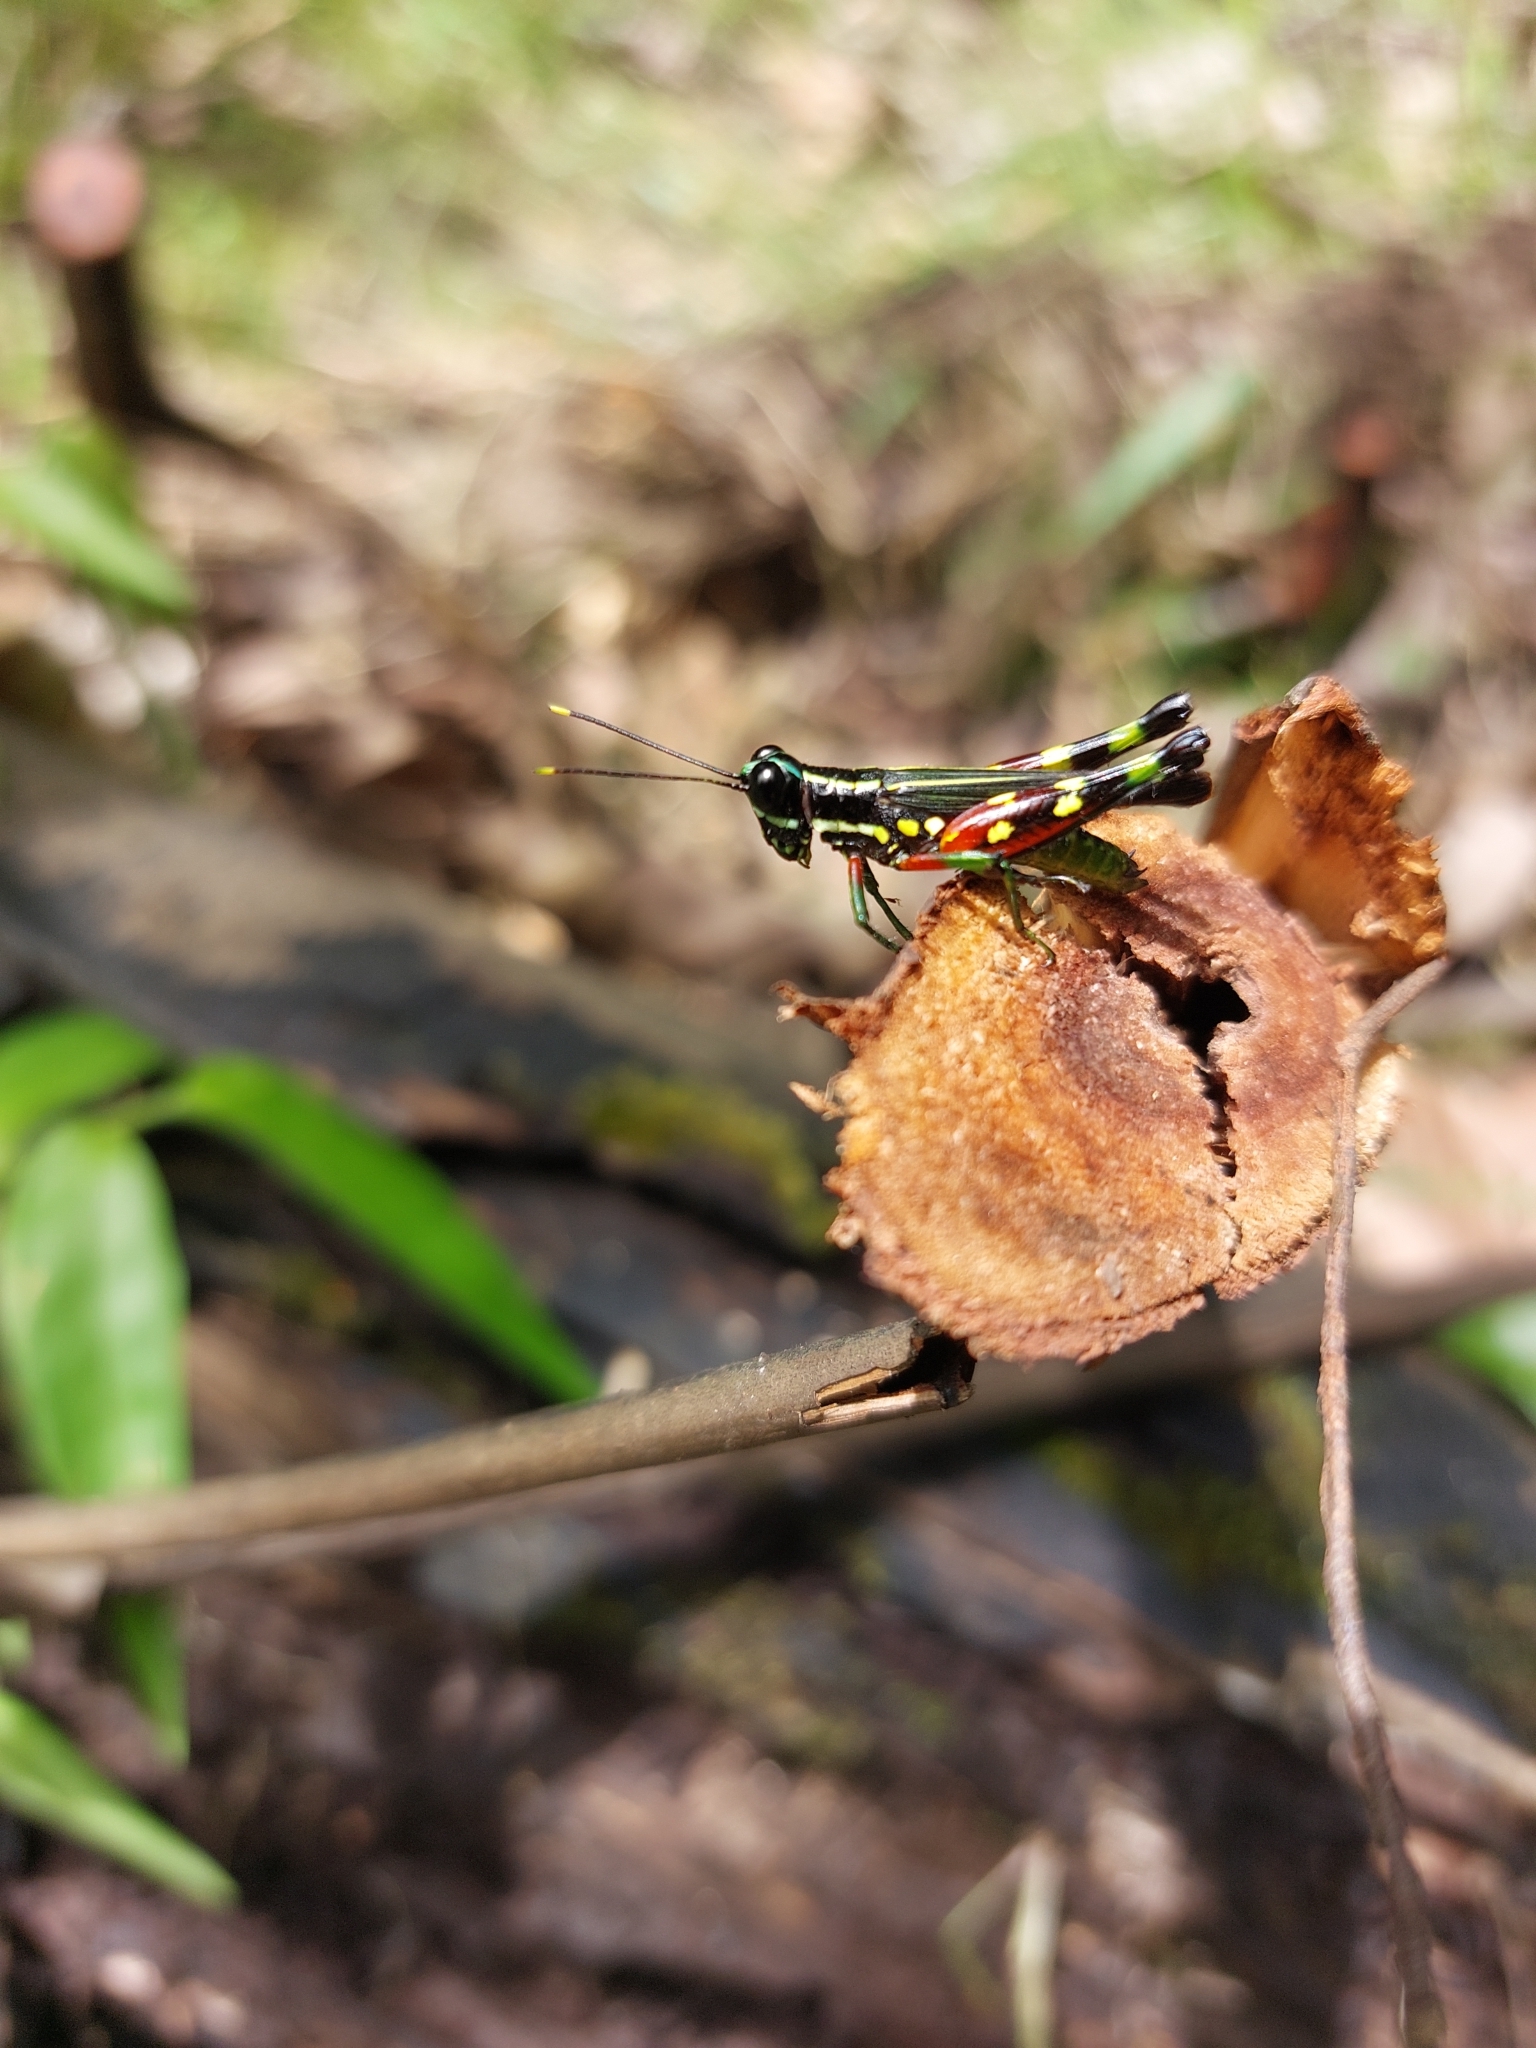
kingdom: Animalia
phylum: Arthropoda
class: Insecta
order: Orthoptera
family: Acrididae
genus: Tetrataenia
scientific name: Tetrataenia surinama
